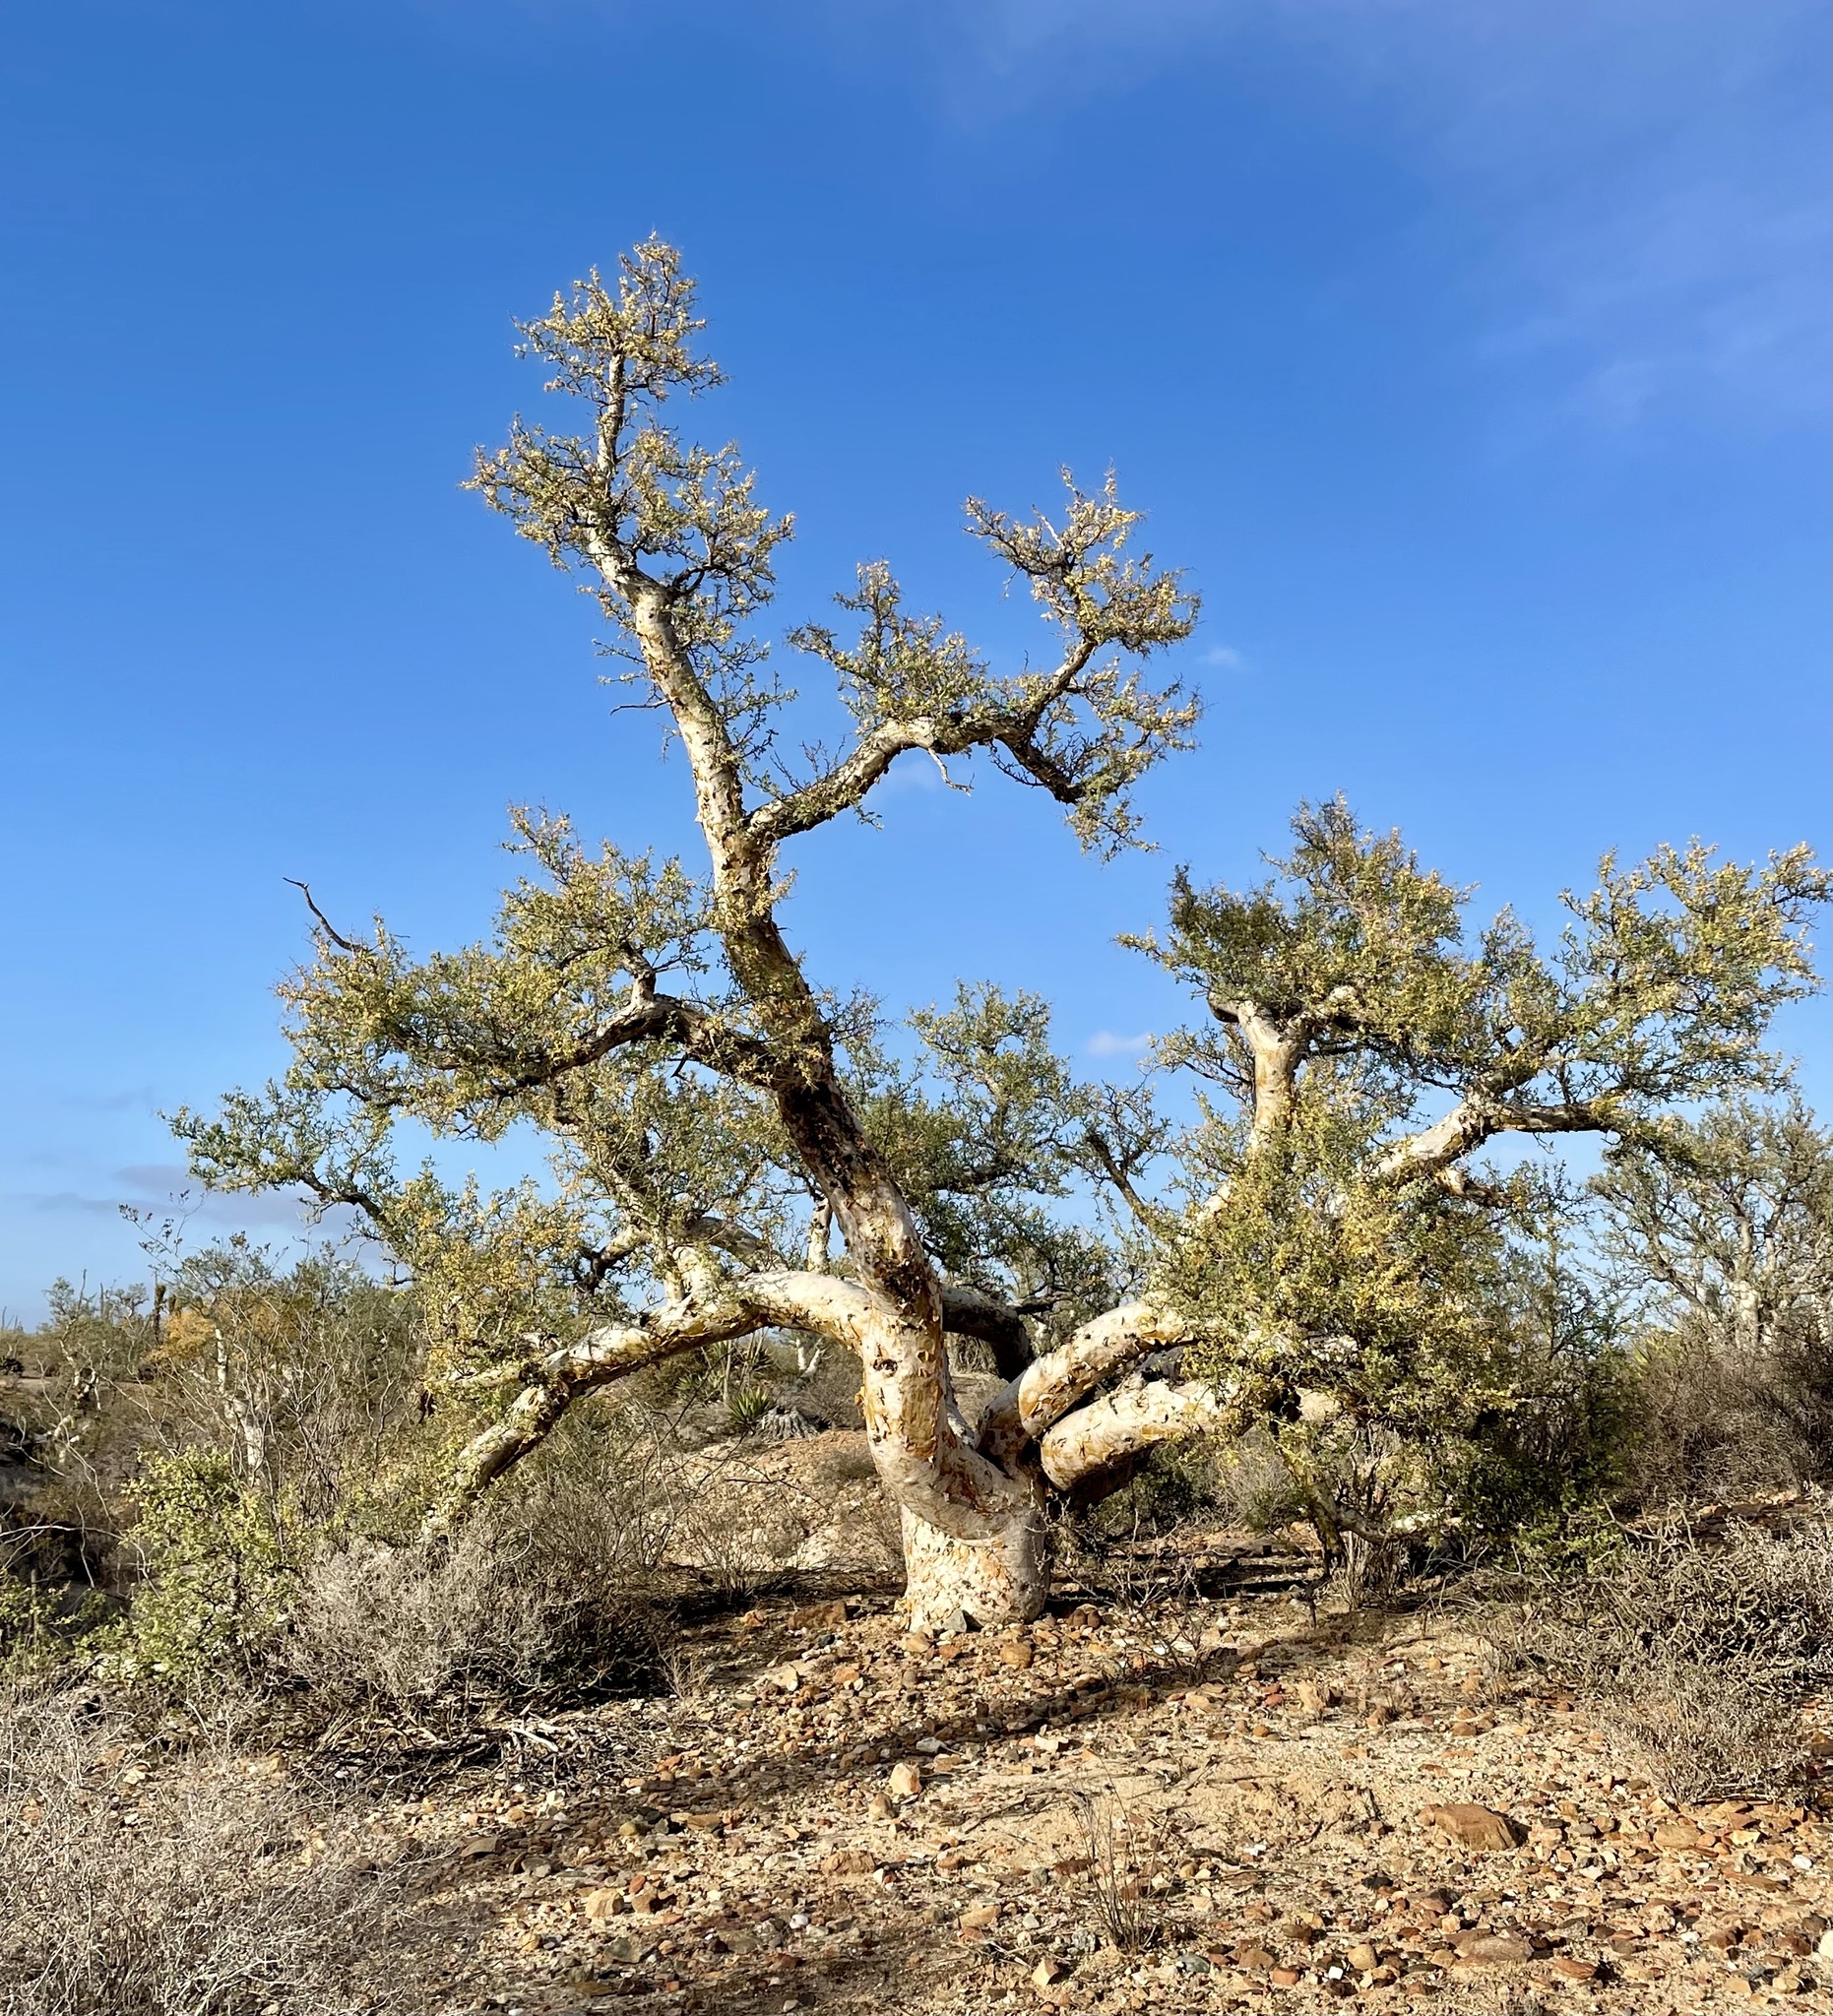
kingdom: Plantae
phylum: Tracheophyta
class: Magnoliopsida
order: Sapindales
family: Anacardiaceae
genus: Pachycormus
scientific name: Pachycormus discolor
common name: Succulent elephant trees
